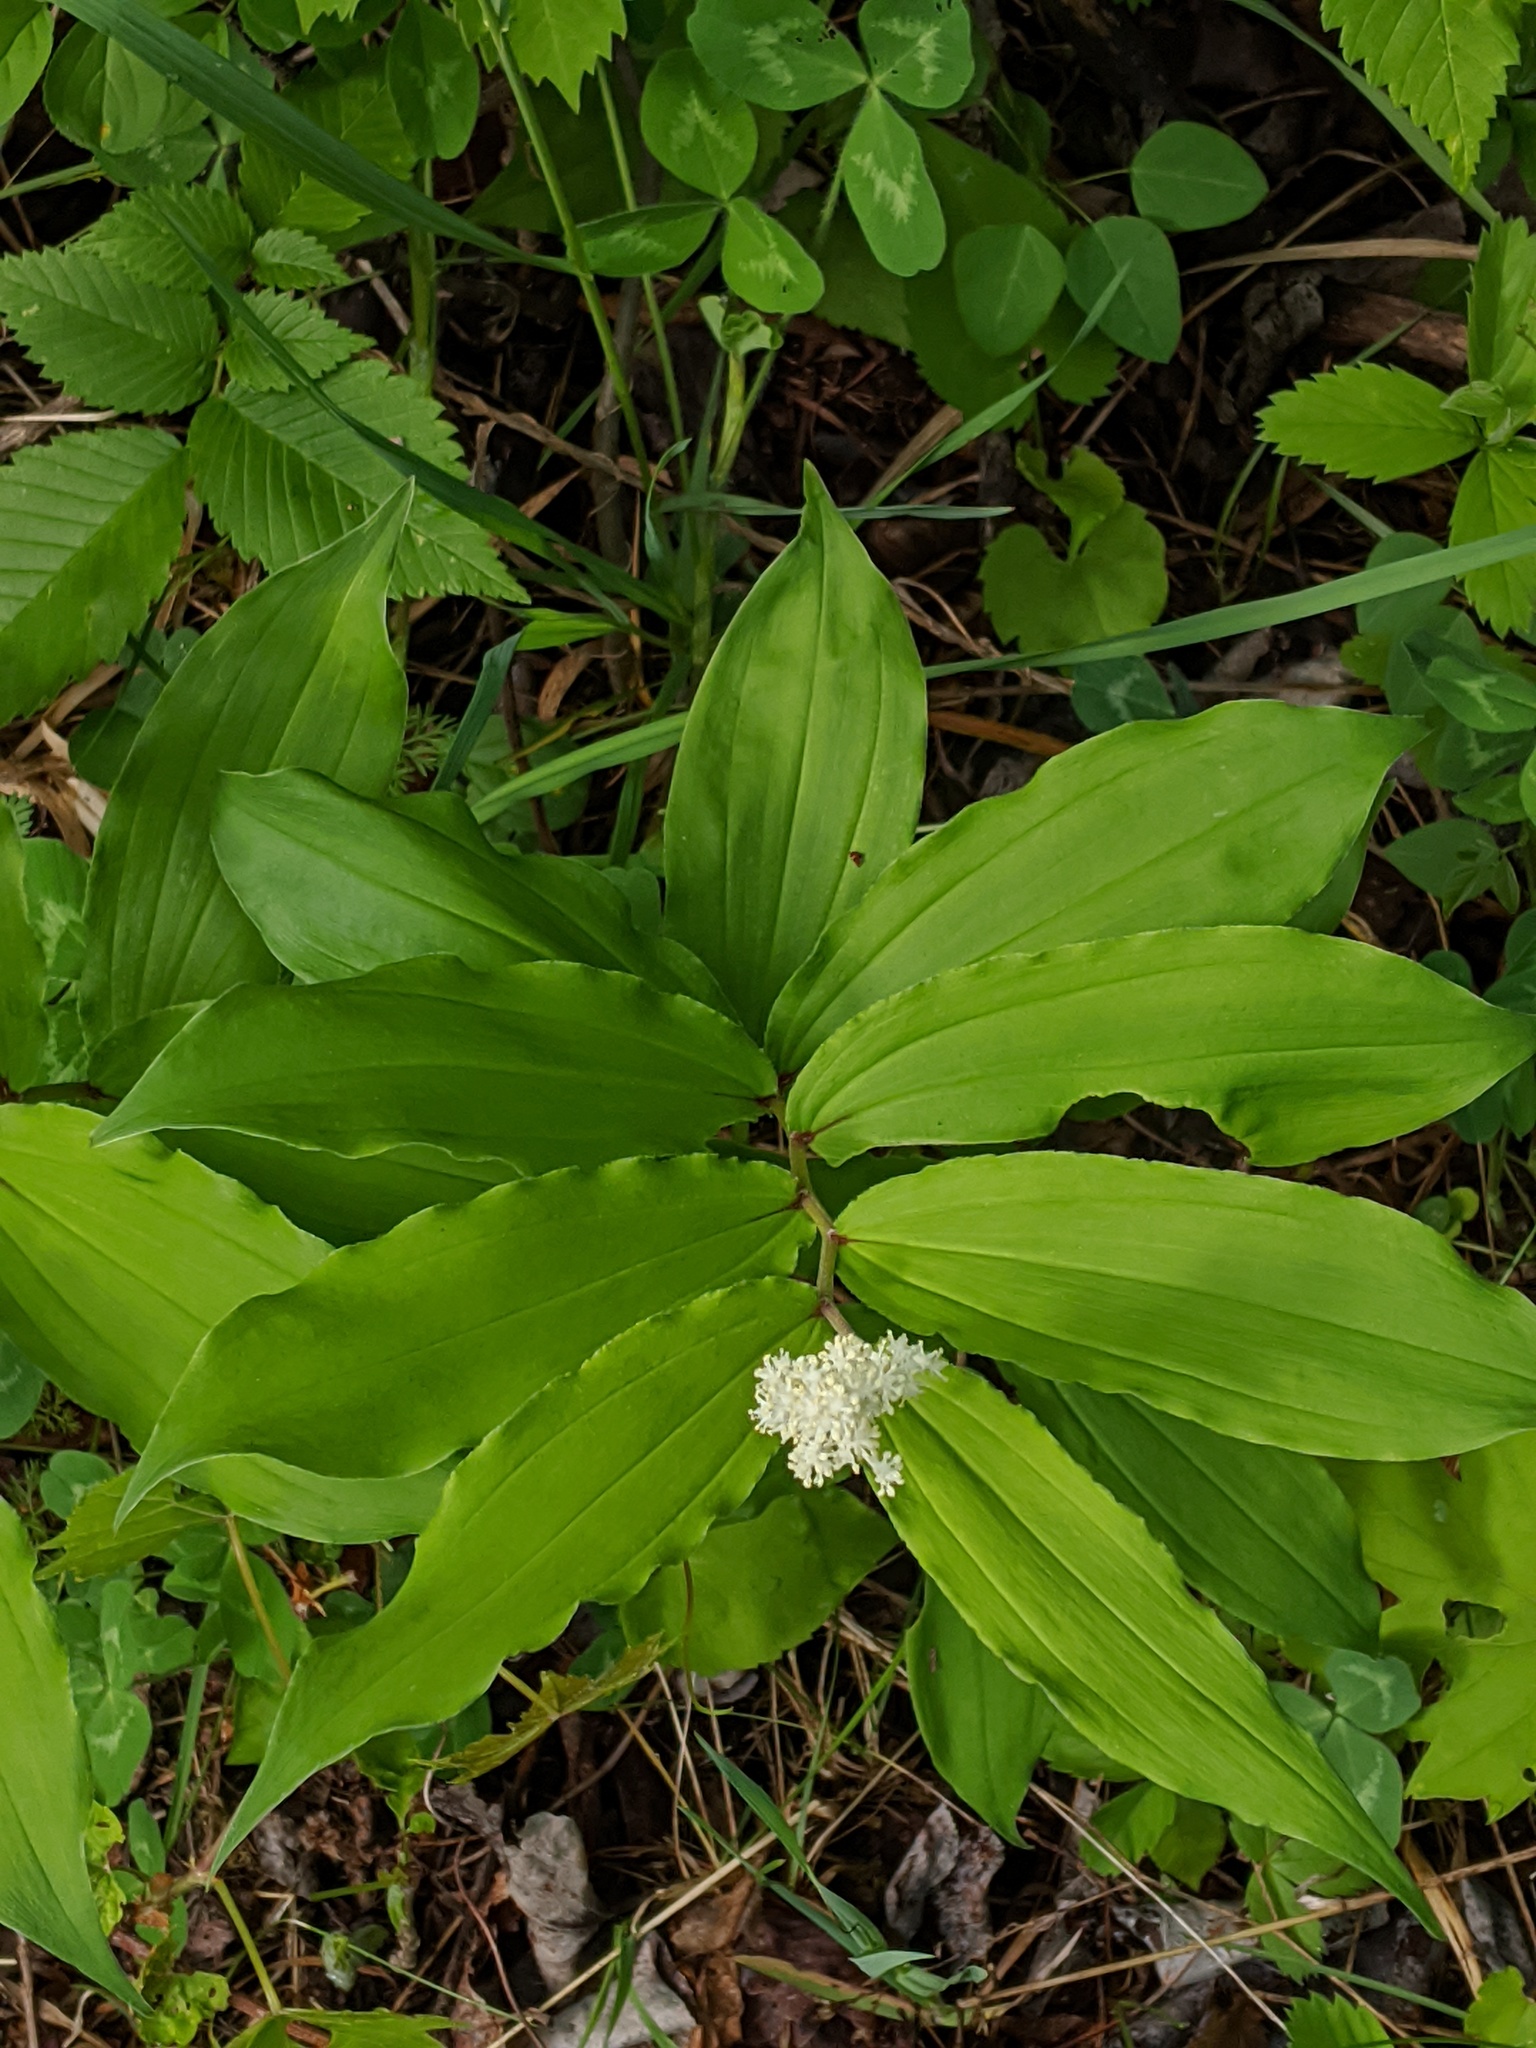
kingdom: Plantae
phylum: Tracheophyta
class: Liliopsida
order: Asparagales
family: Asparagaceae
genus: Maianthemum
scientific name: Maianthemum racemosum
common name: False spikenard
